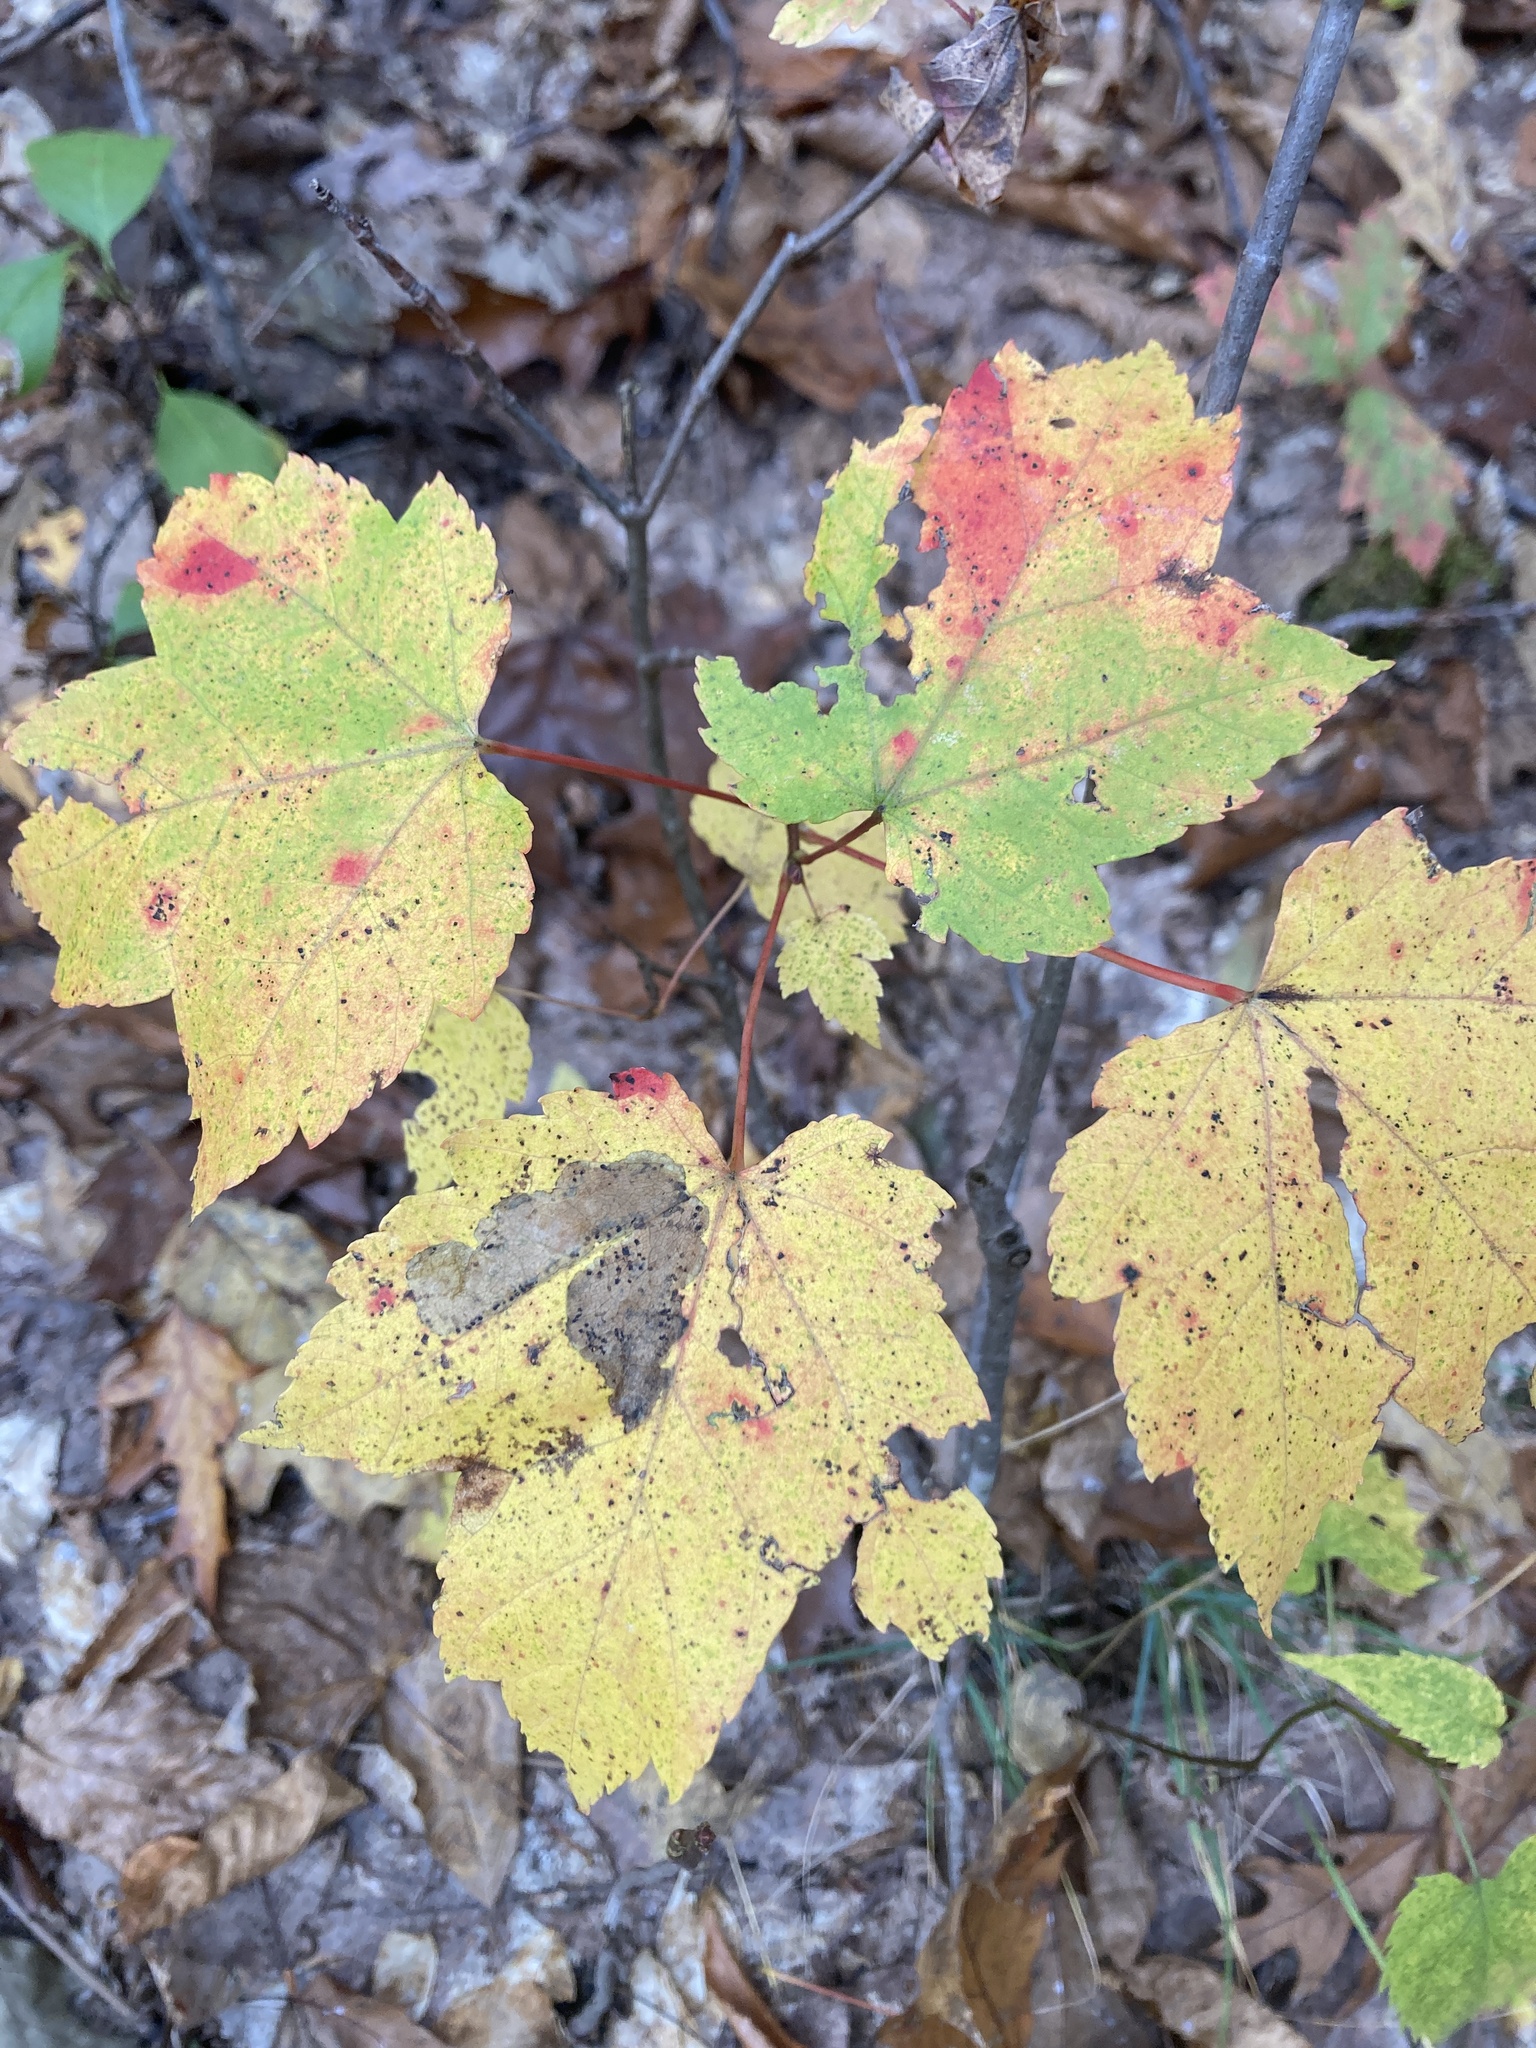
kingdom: Plantae
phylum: Tracheophyta
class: Magnoliopsida
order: Sapindales
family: Sapindaceae
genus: Acer
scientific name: Acer rubrum
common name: Red maple
